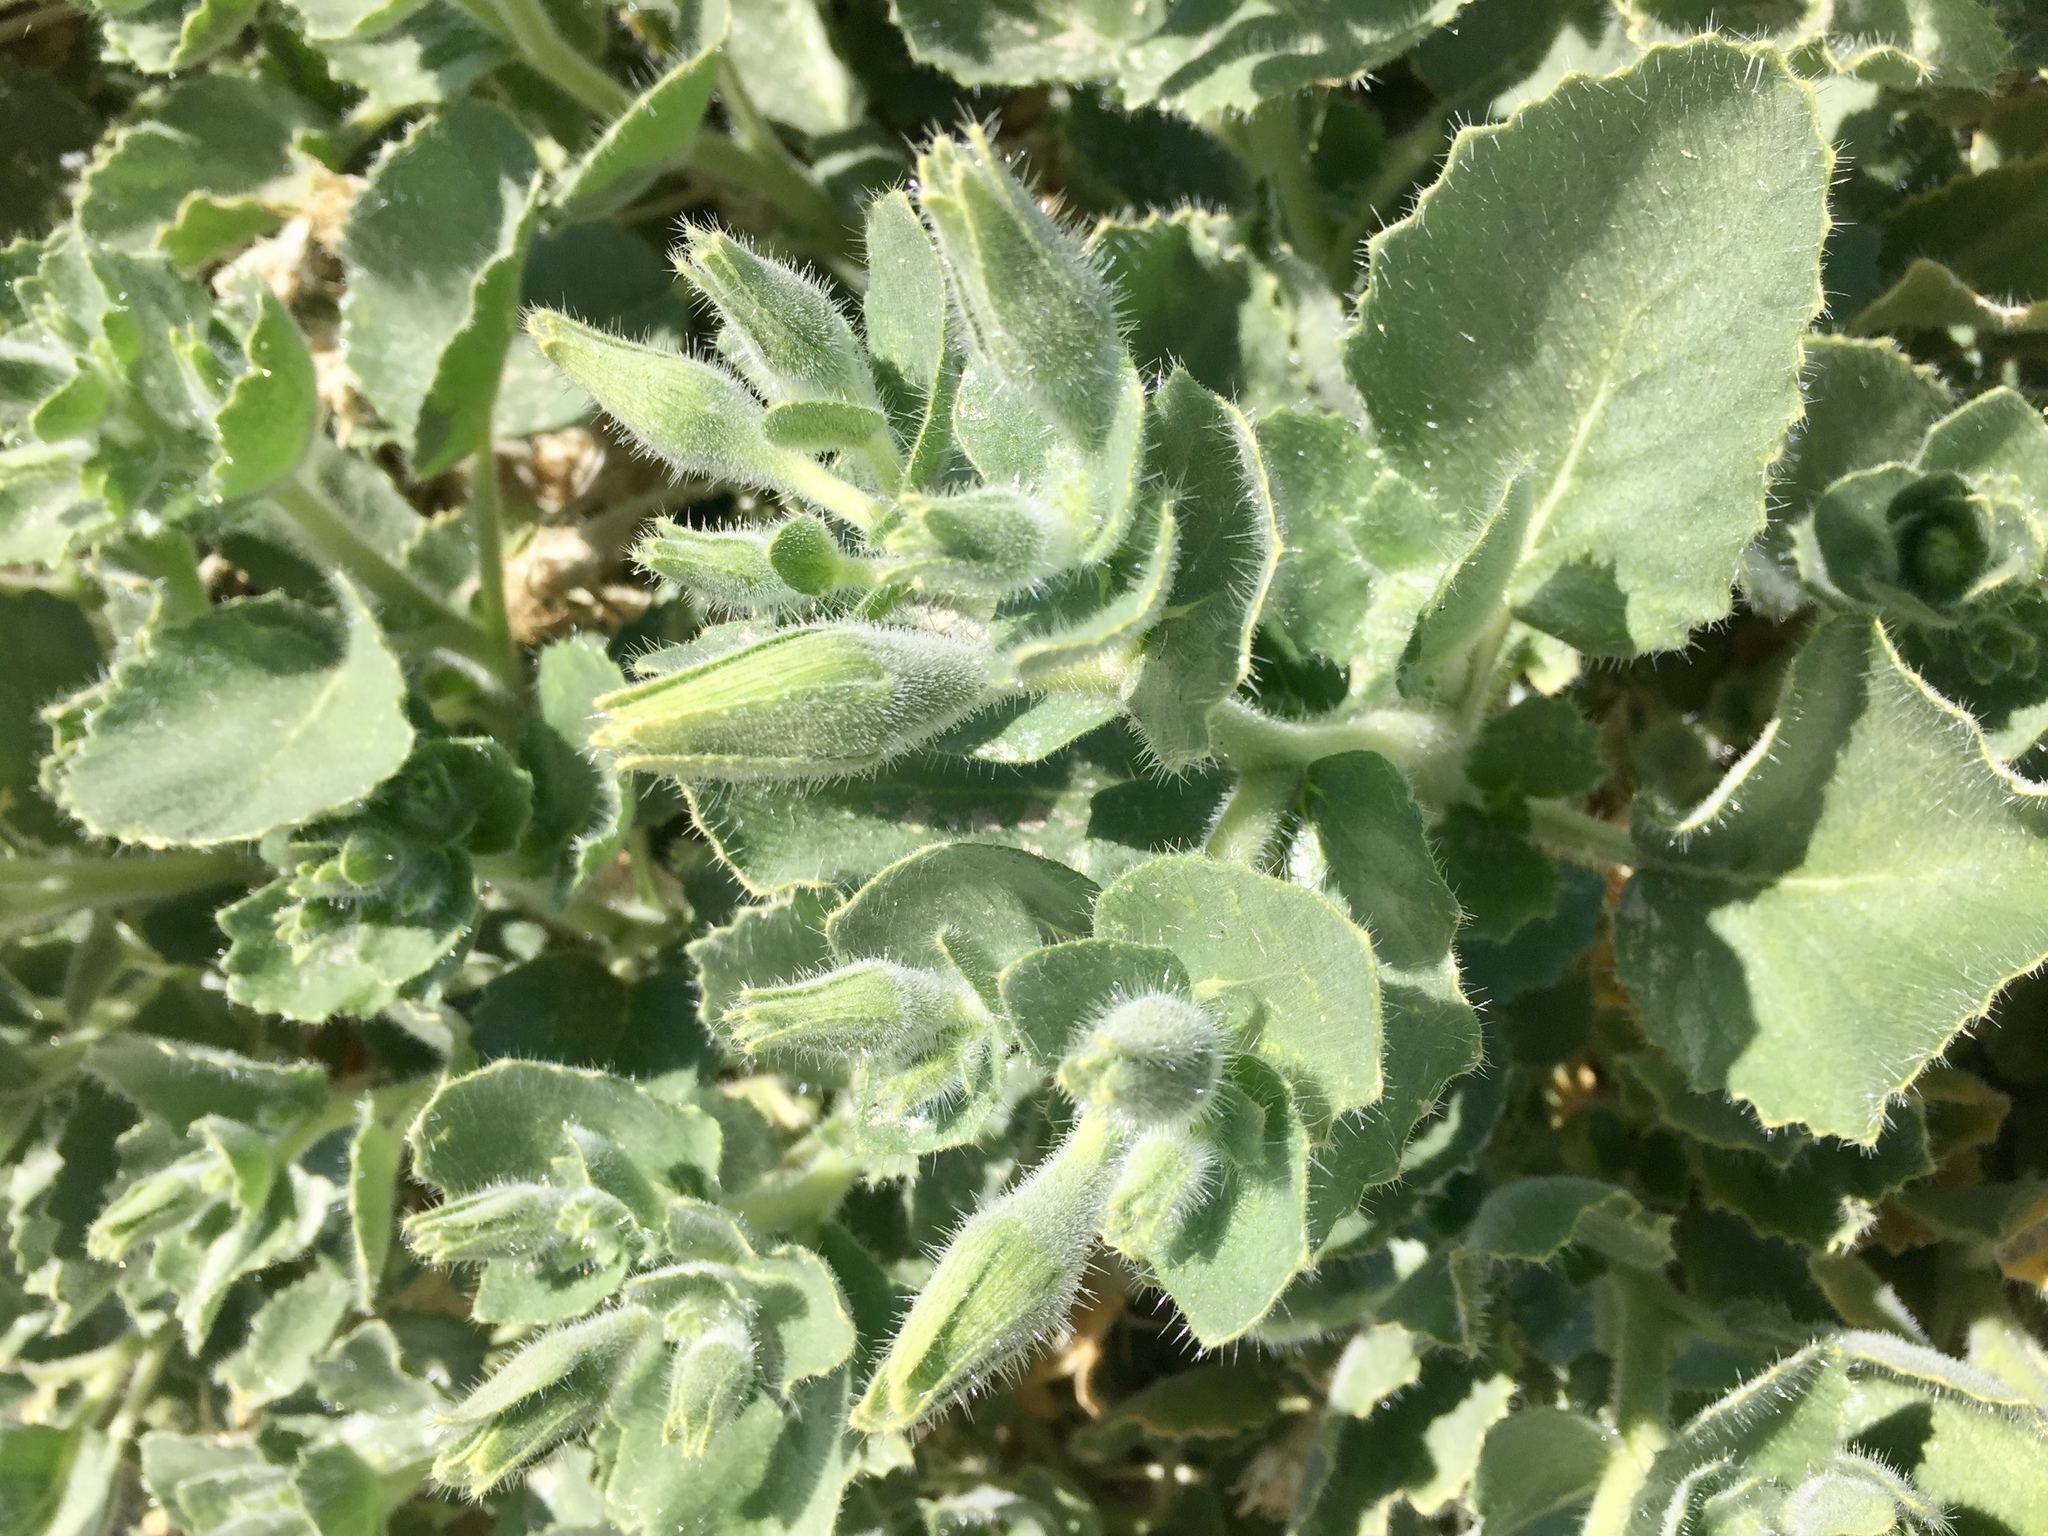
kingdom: Plantae
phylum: Tracheophyta
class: Magnoliopsida
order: Cornales
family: Loasaceae
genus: Eucnide
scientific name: Eucnide urens
